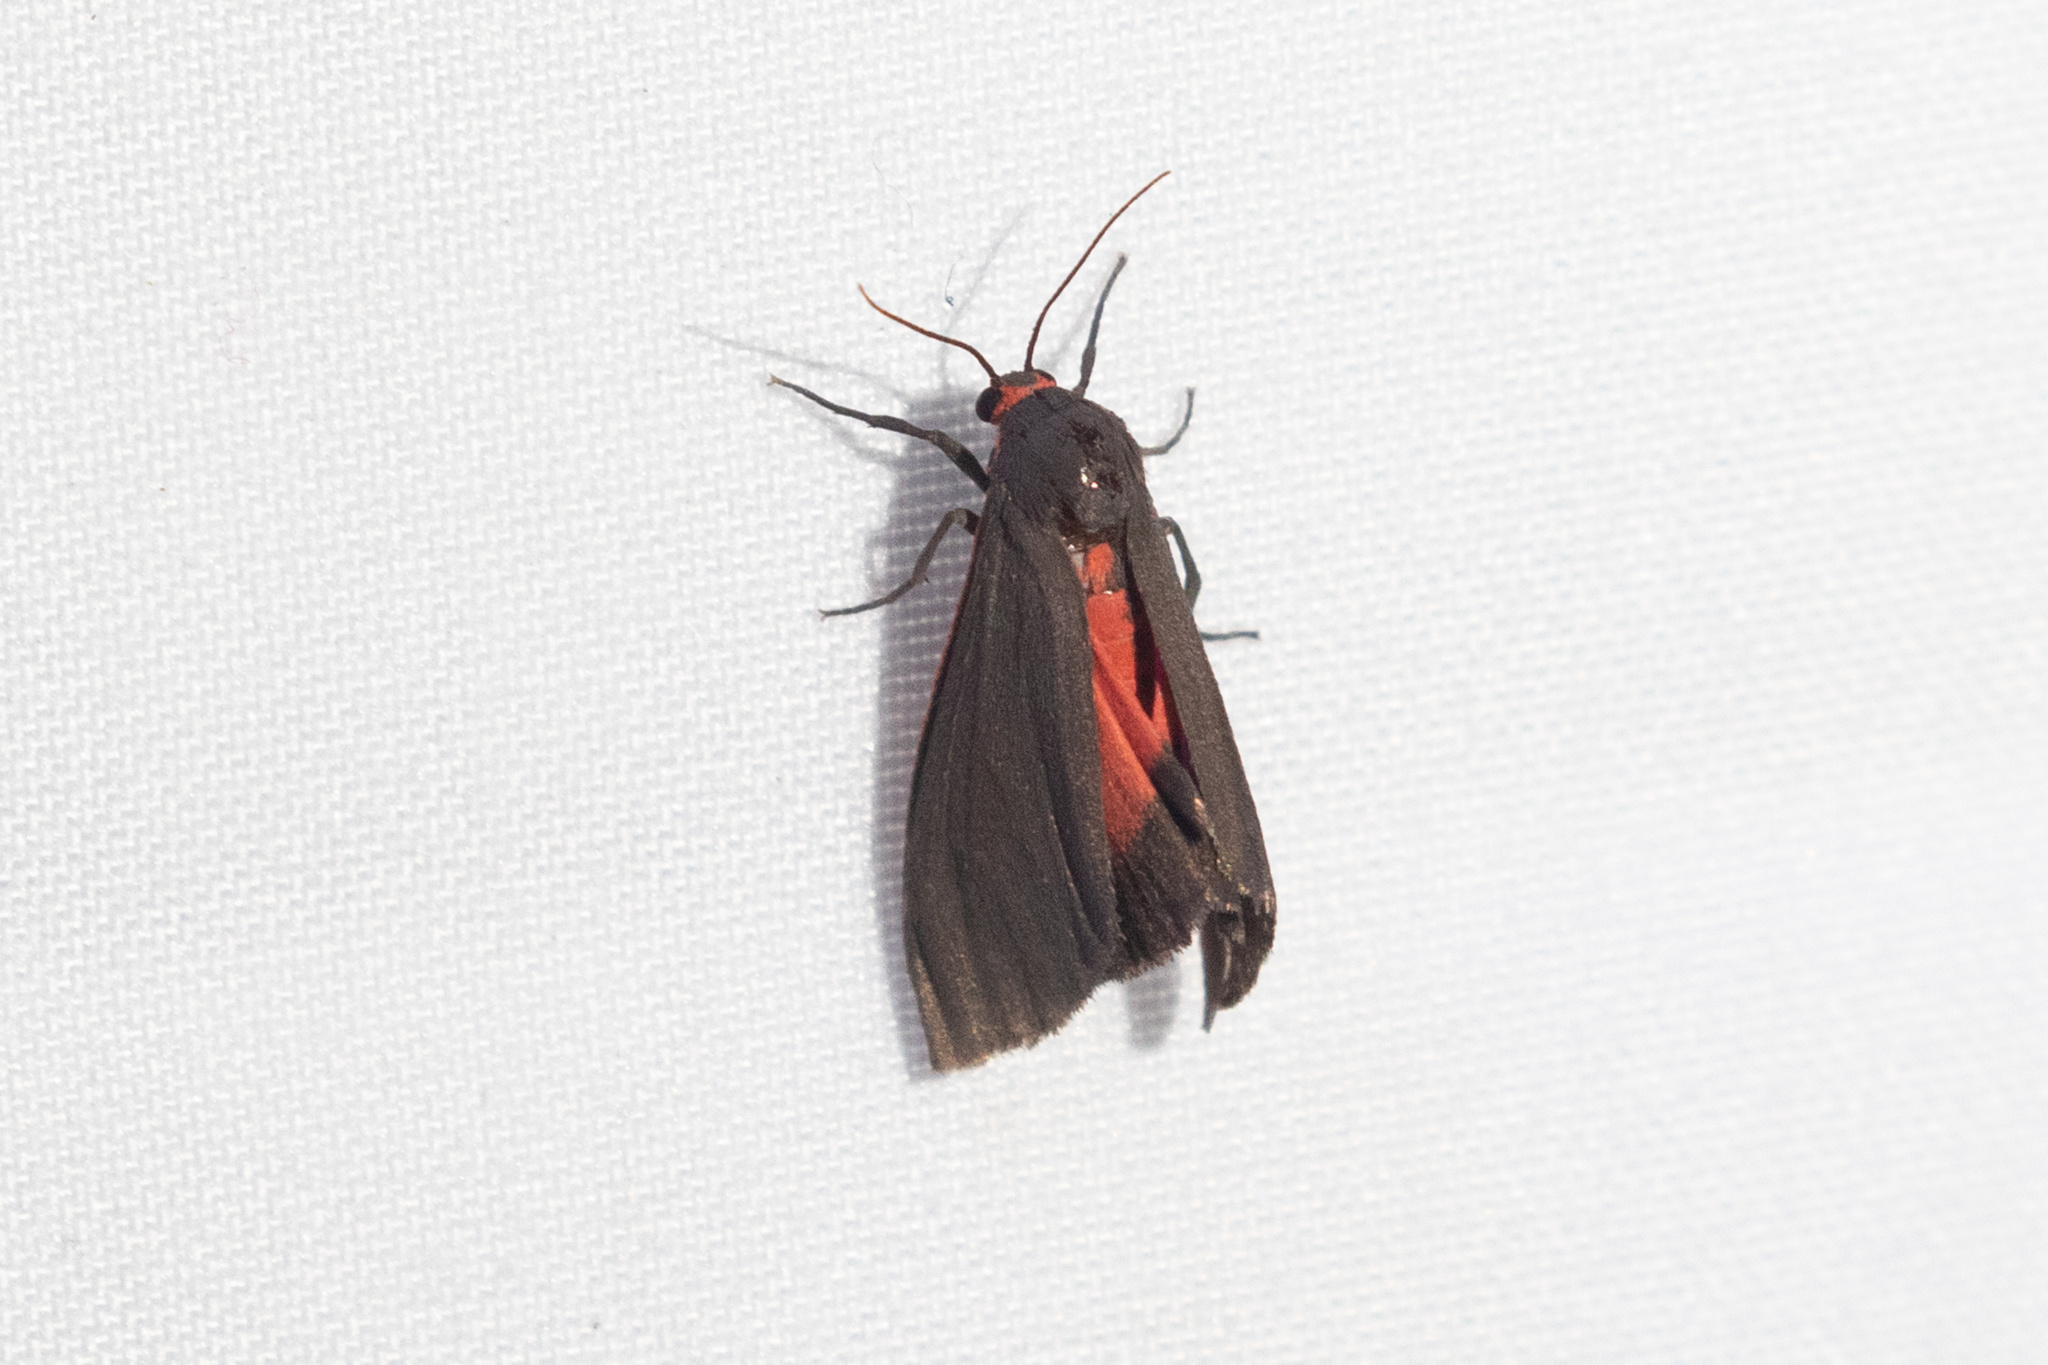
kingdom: Animalia
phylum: Arthropoda
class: Insecta
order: Lepidoptera
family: Erebidae
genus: Virbia
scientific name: Virbia laeta
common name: Joyful holomelina moth
